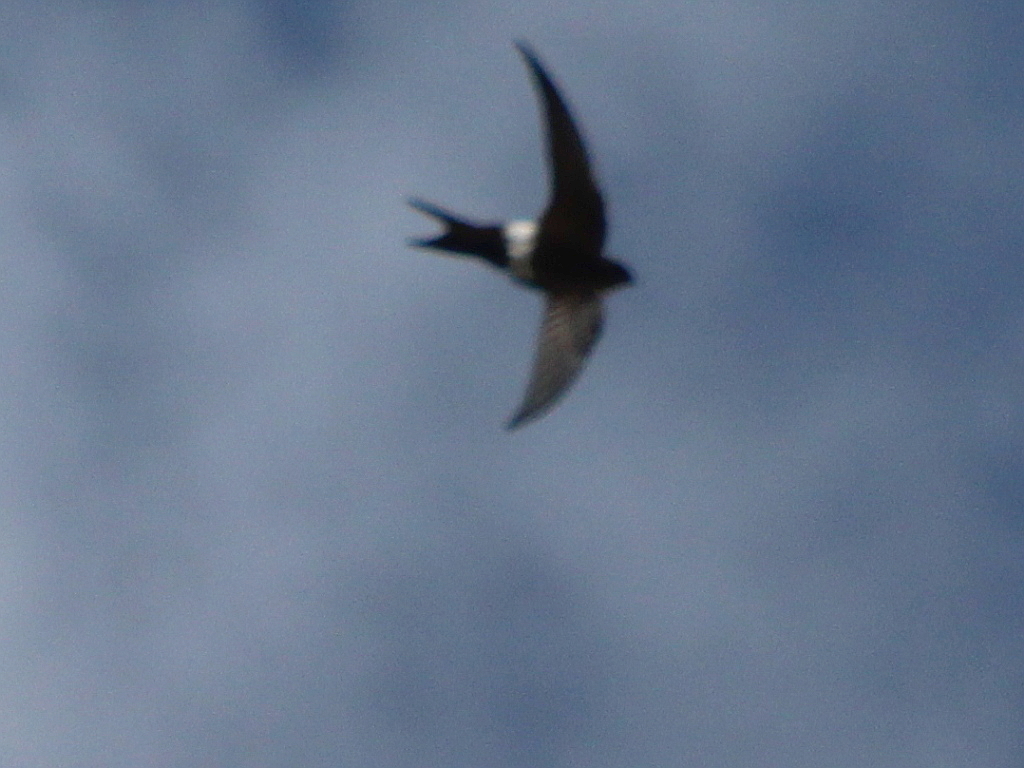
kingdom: Animalia
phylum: Chordata
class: Aves
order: Apodiformes
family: Apodidae
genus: Apus
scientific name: Apus pacificus
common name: Pacific swift
